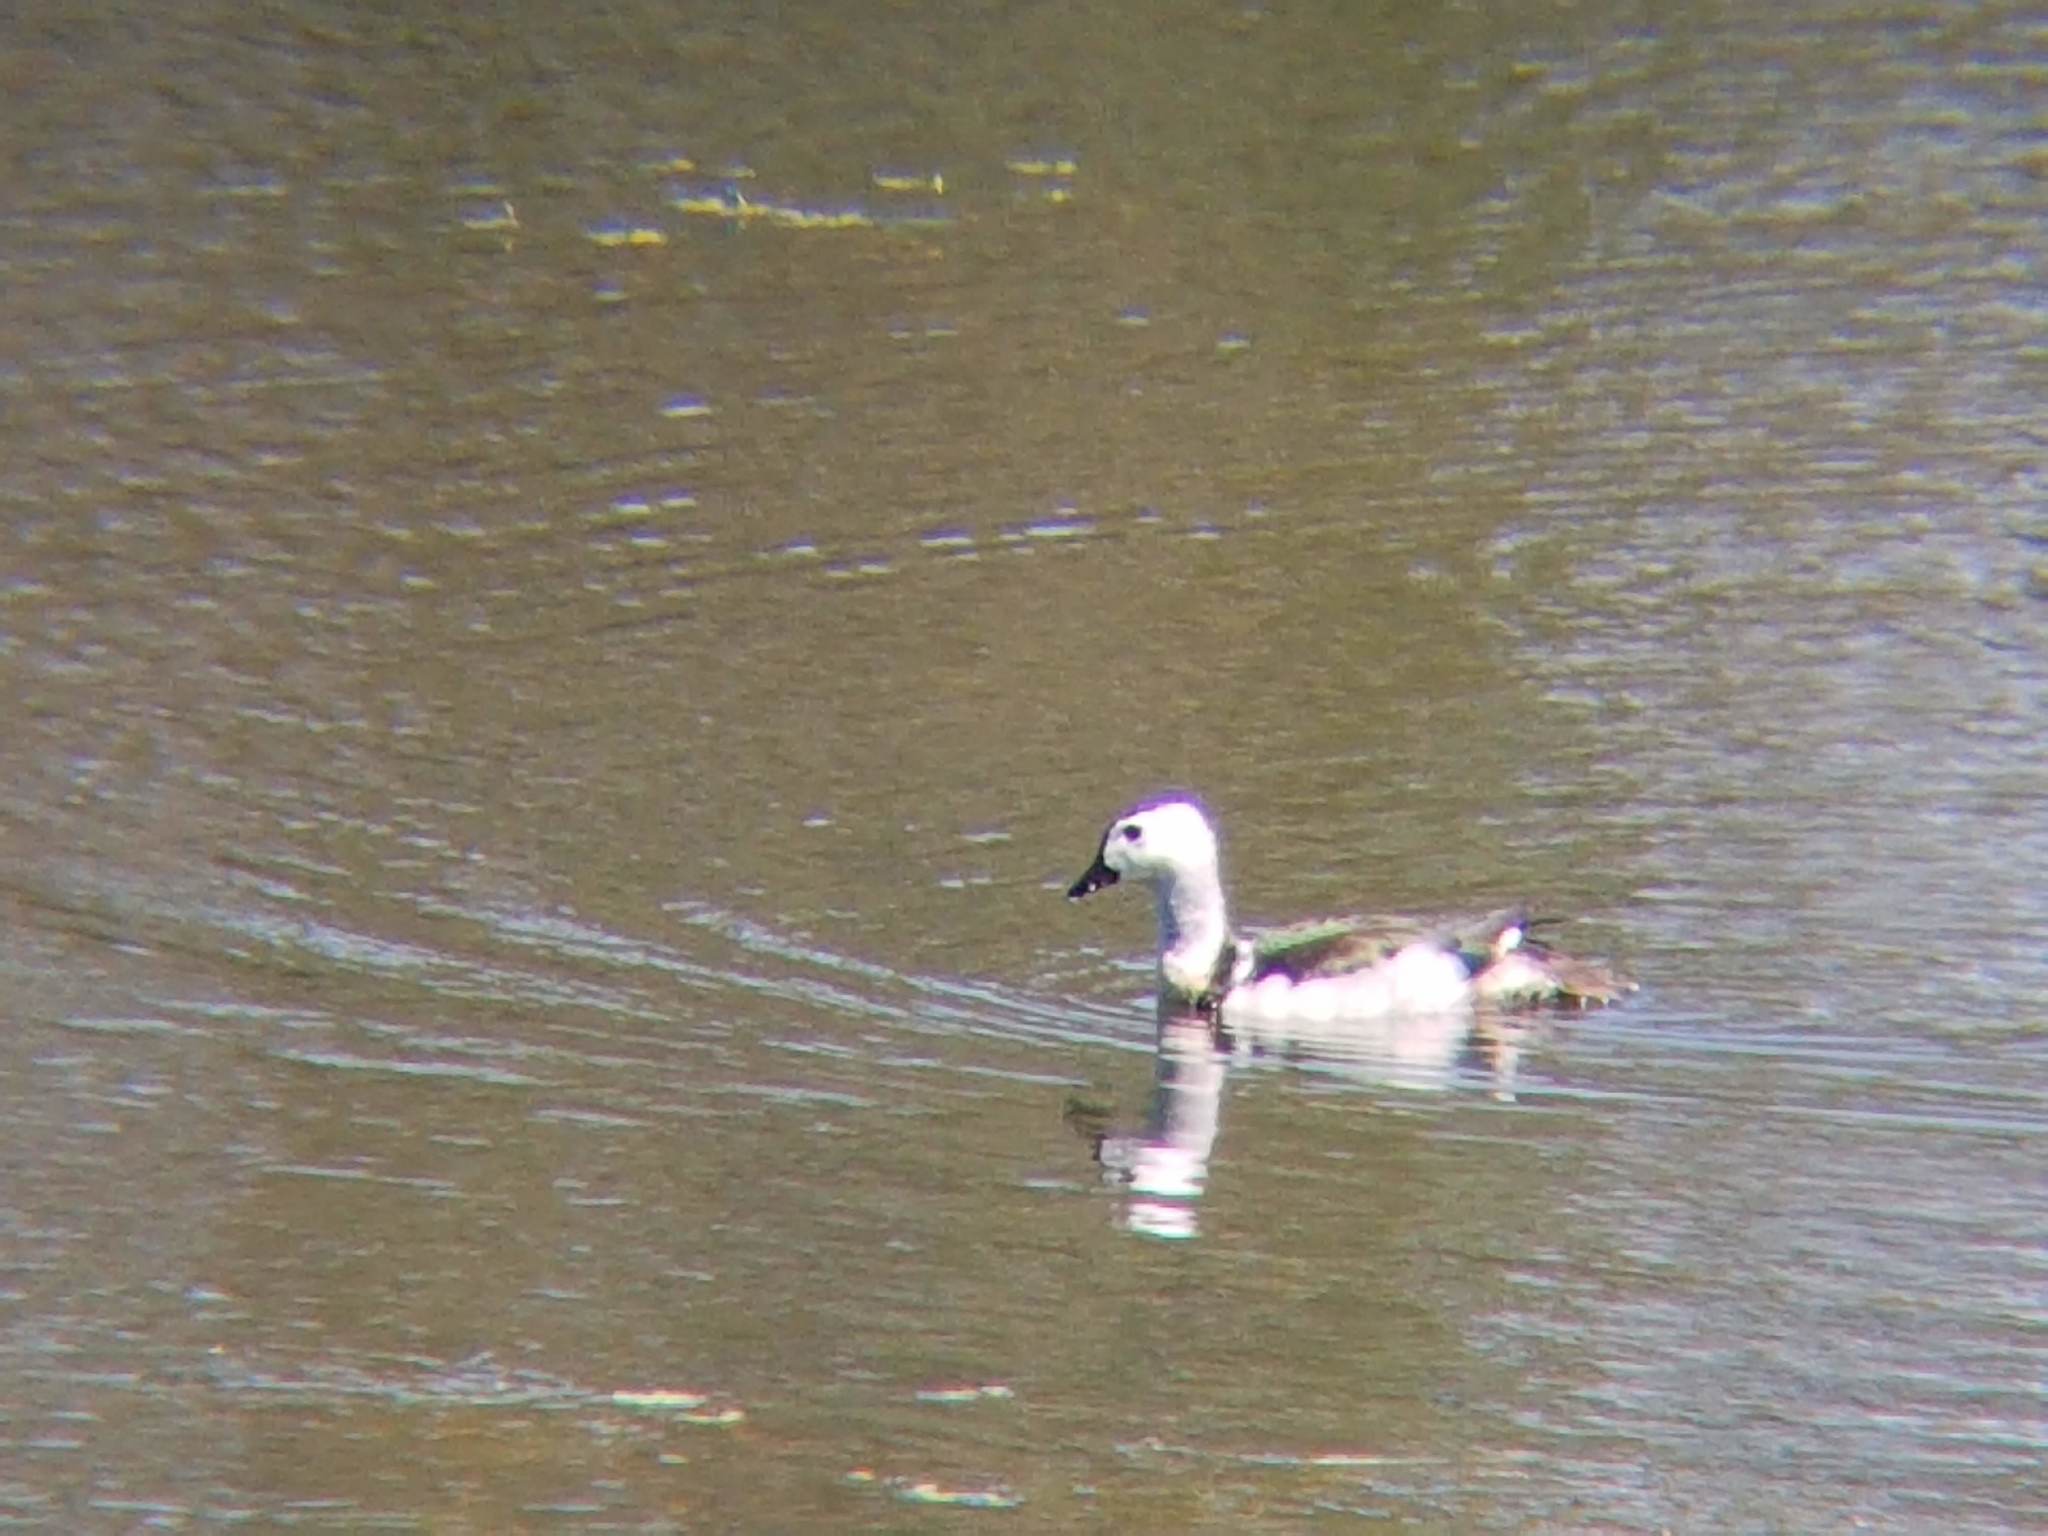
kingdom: Animalia
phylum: Chordata
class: Aves
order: Anseriformes
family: Anatidae
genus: Nettapus
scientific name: Nettapus coromandelianus
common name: Cotton pygmy-goose
